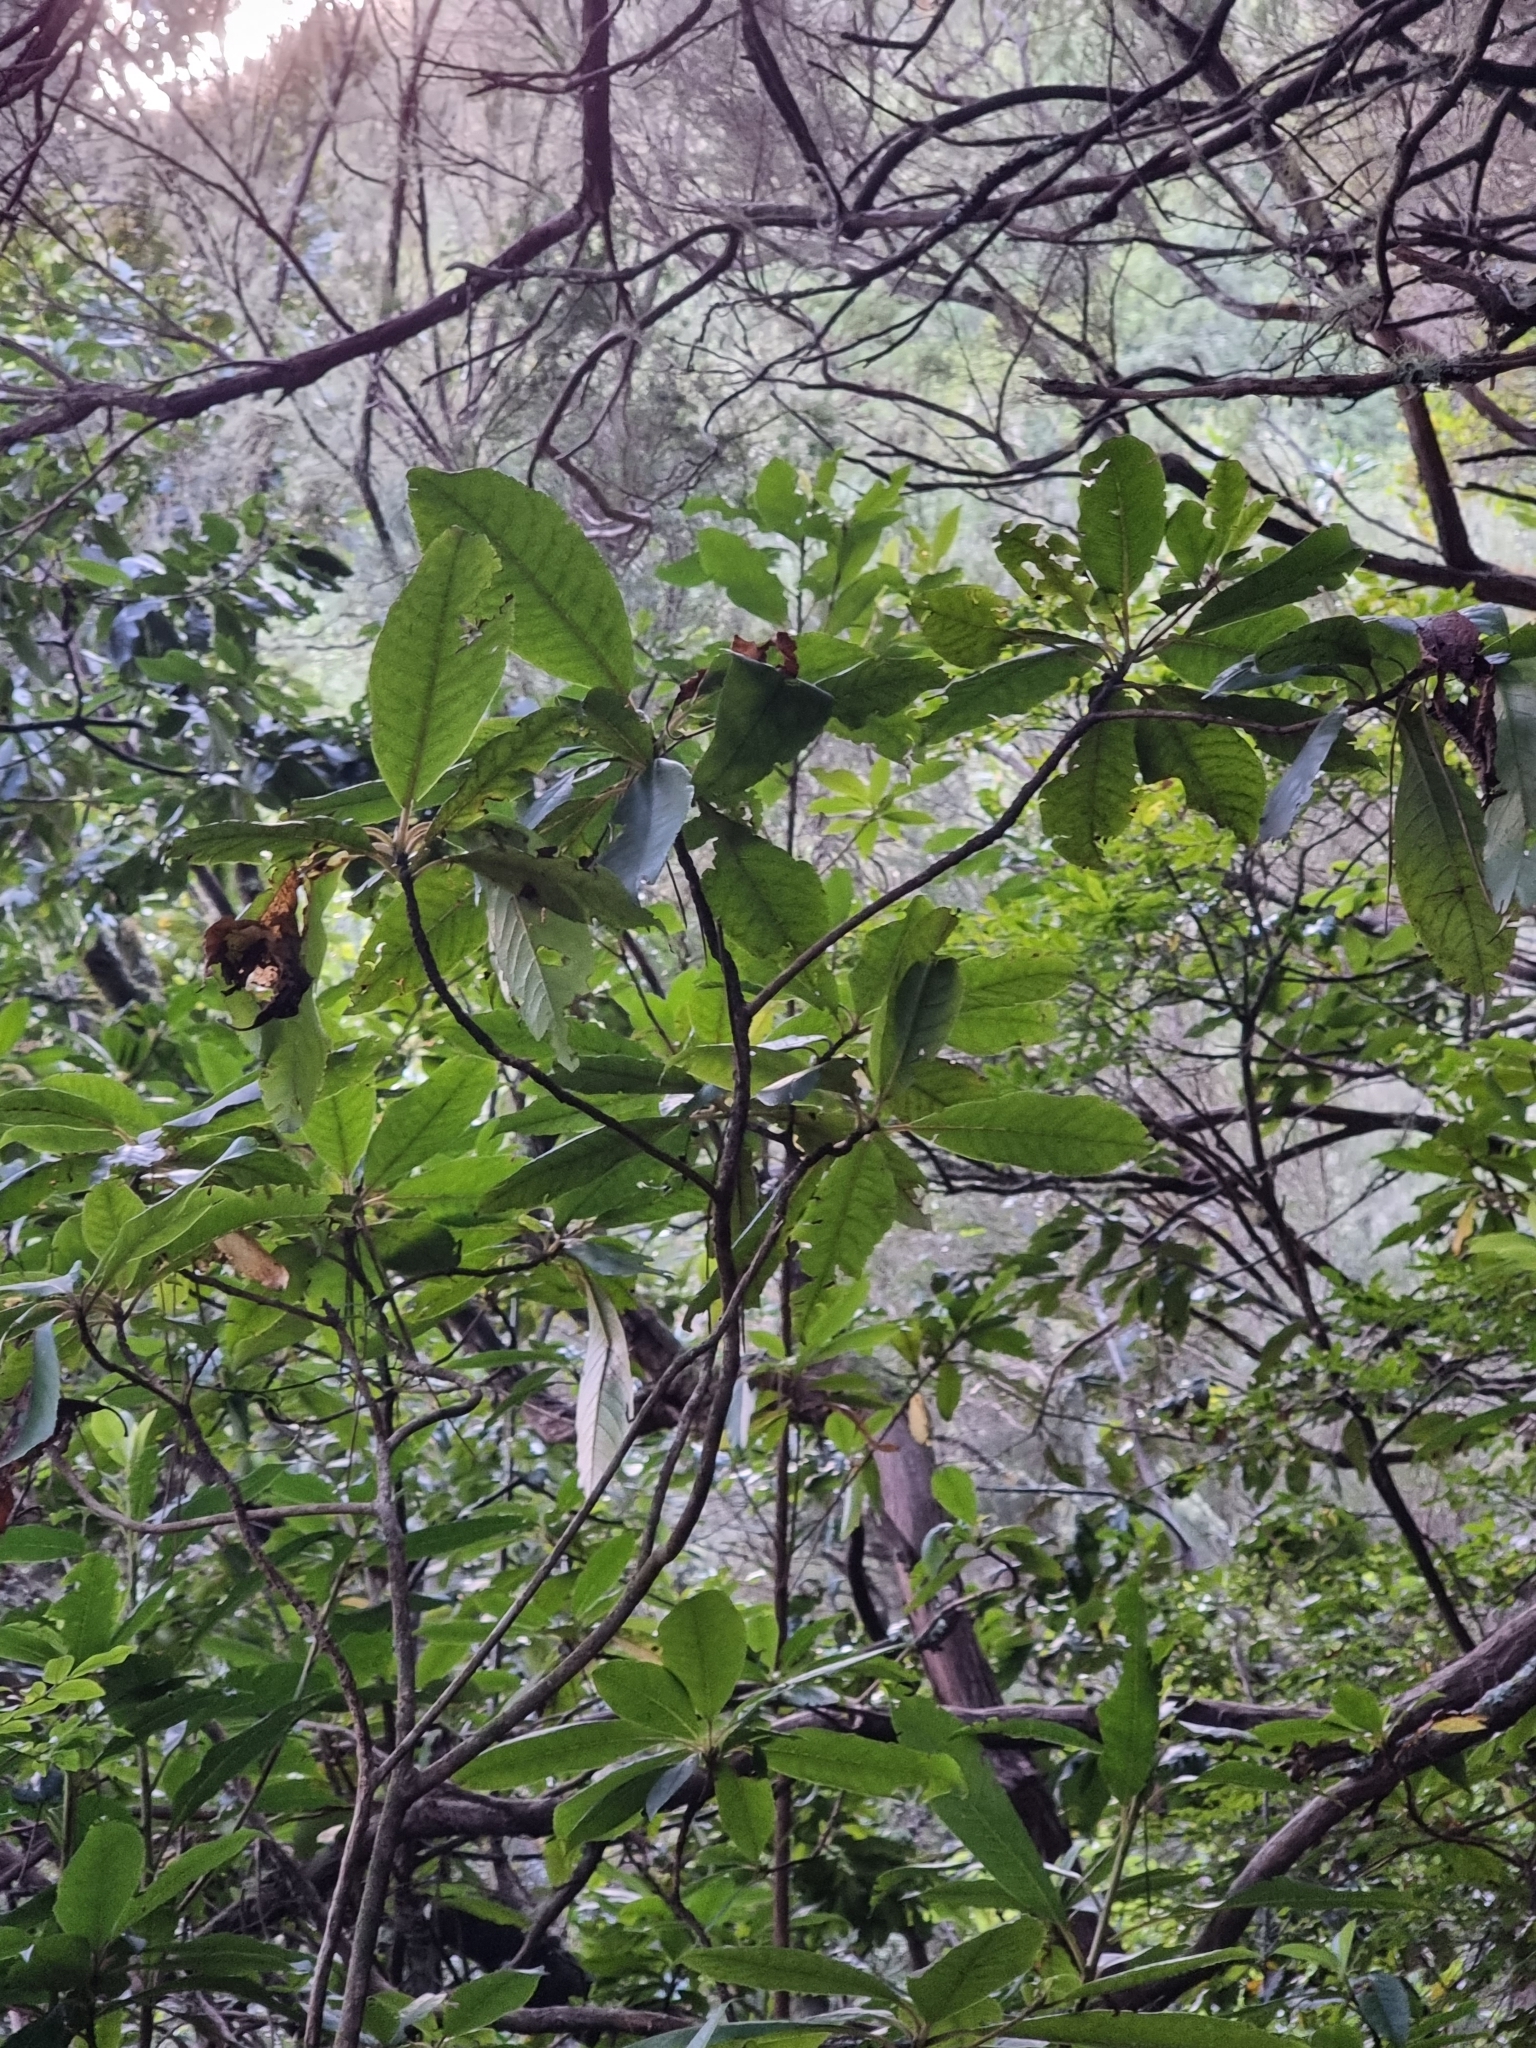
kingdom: Plantae
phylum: Tracheophyta
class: Magnoliopsida
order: Ericales
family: Clethraceae
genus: Clethra
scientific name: Clethra arborea
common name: Lily-of-the-valley-tree
